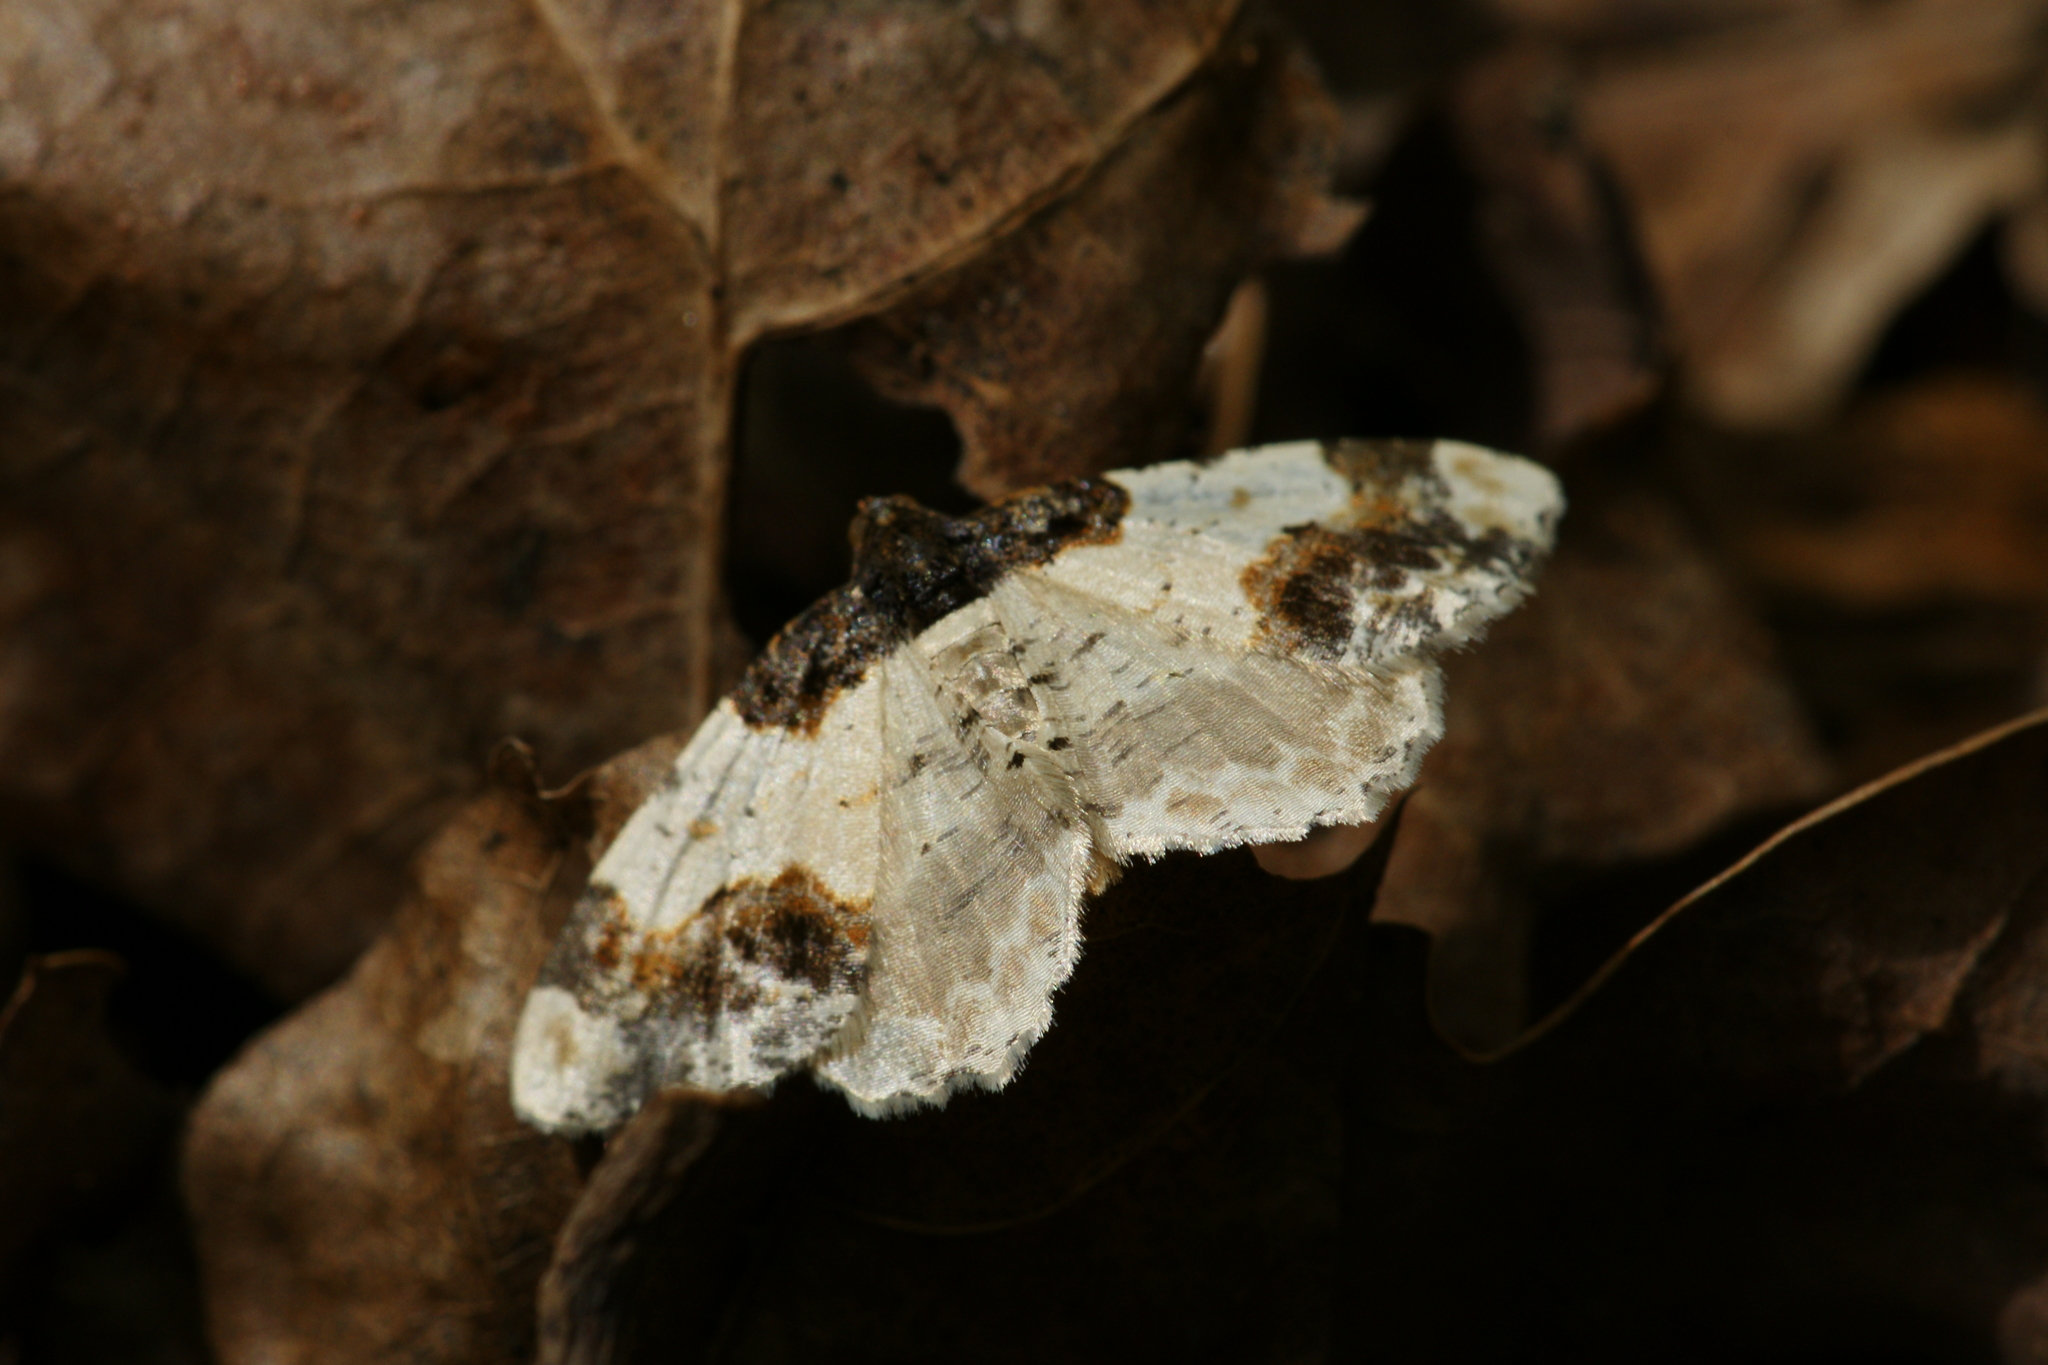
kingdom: Animalia
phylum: Arthropoda
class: Insecta
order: Lepidoptera
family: Geometridae
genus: Ligdia
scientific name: Ligdia adustata
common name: Scorched carpet
